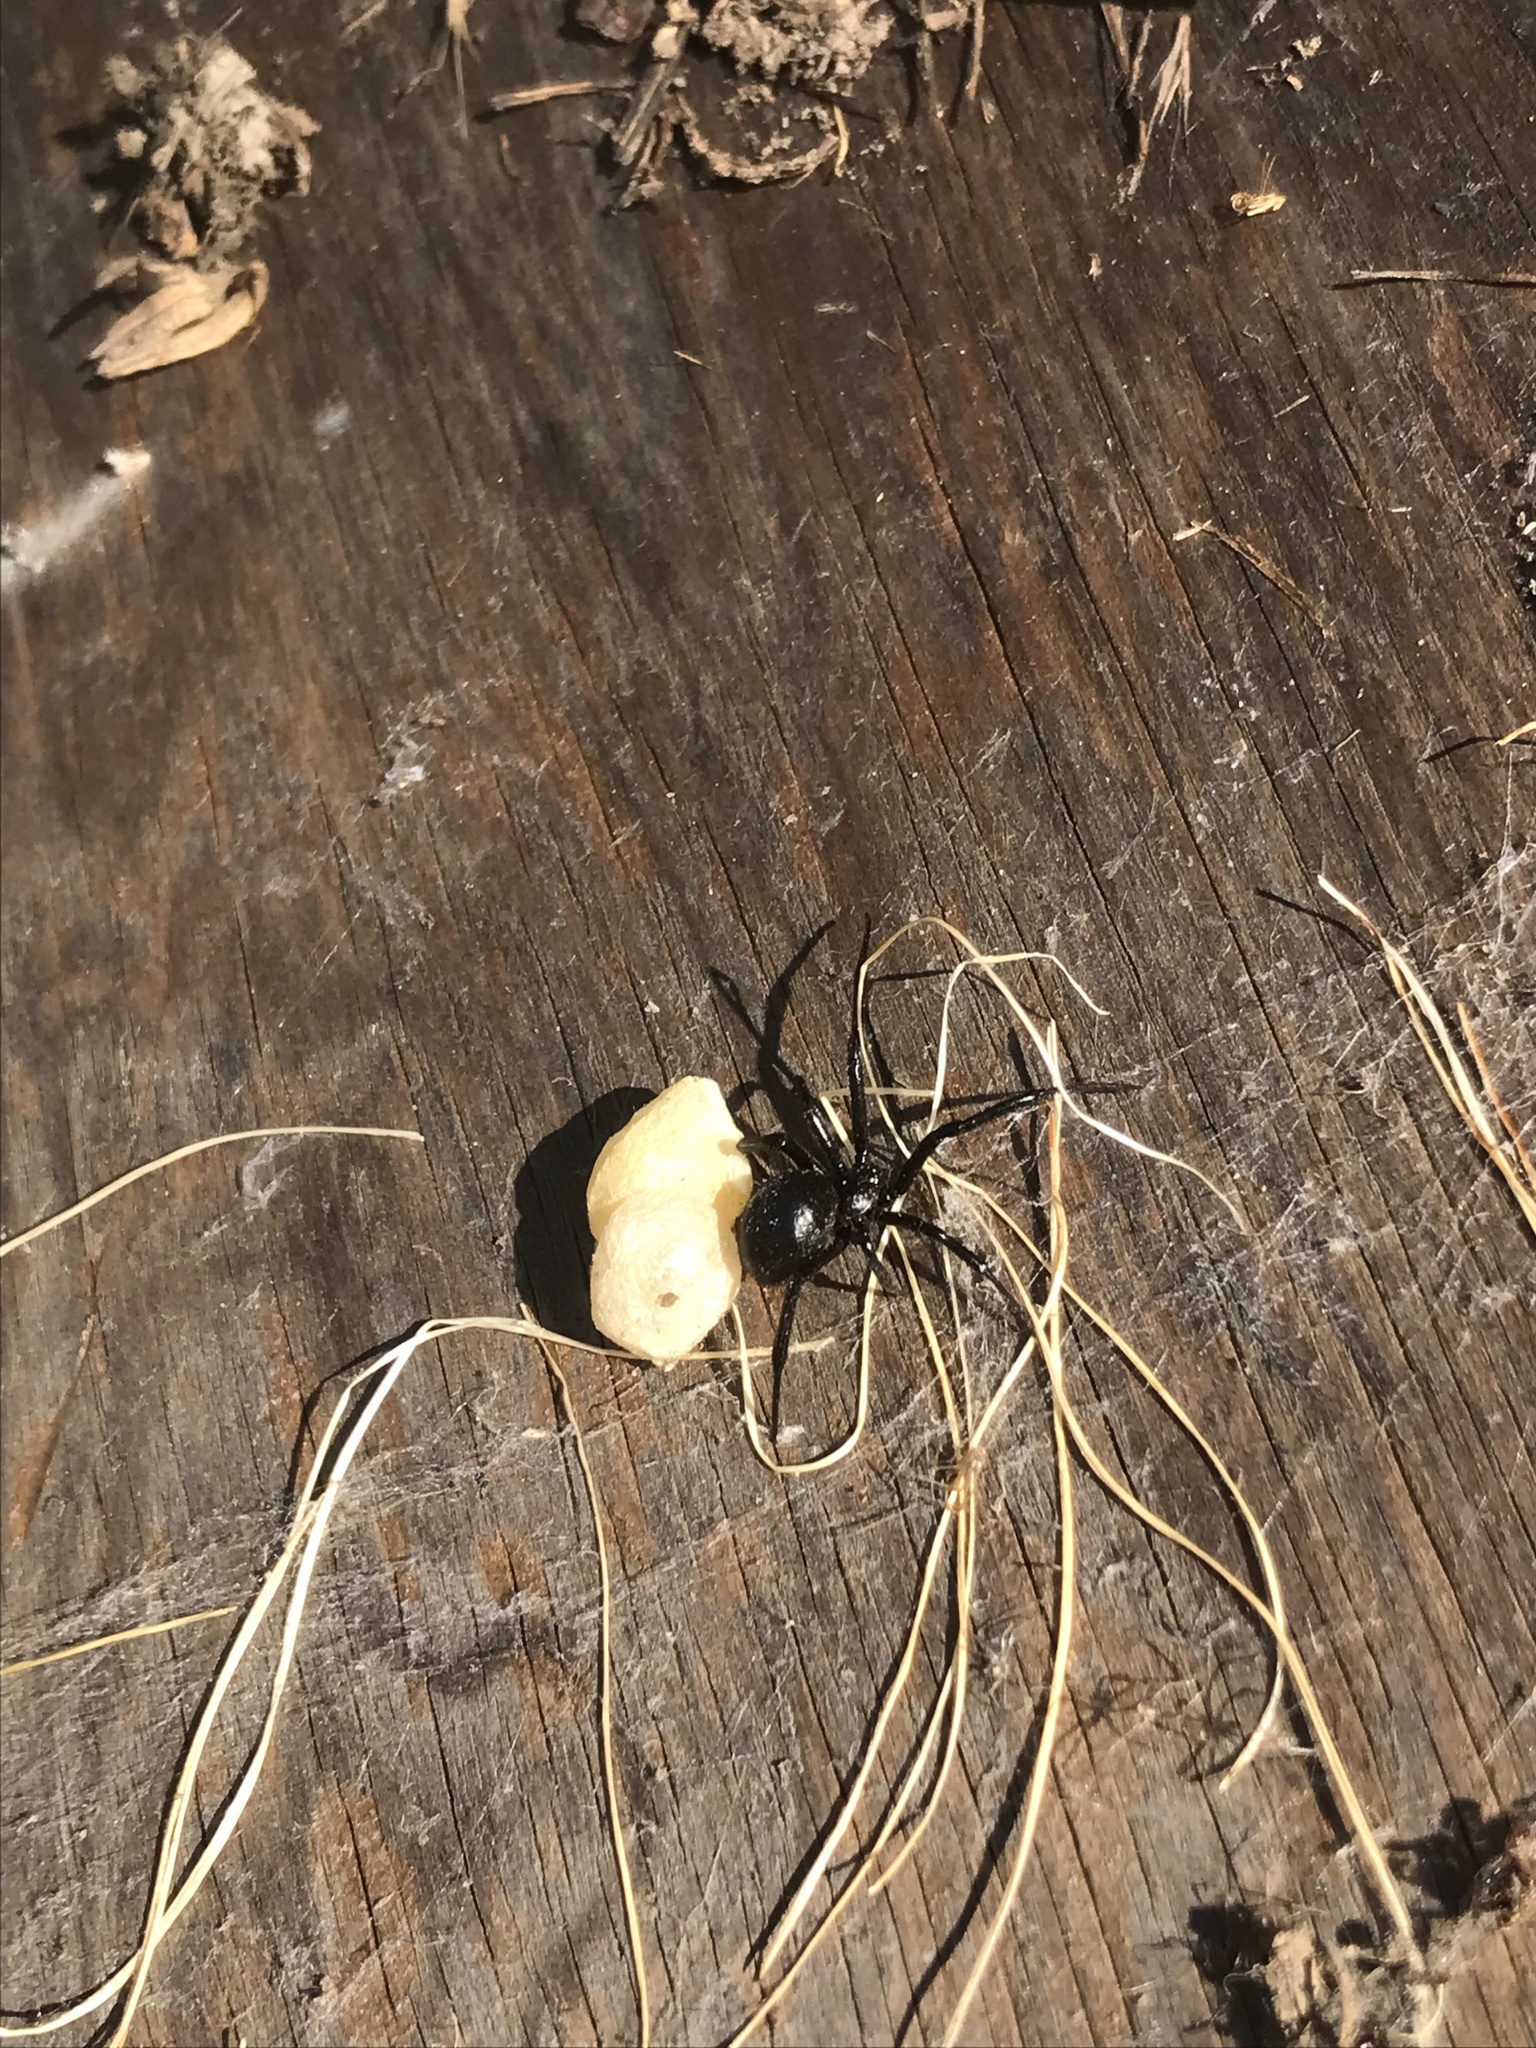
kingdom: Animalia
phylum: Arthropoda
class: Arachnida
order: Araneae
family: Theridiidae
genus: Latrodectus
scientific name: Latrodectus hesperus
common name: Western black widow
